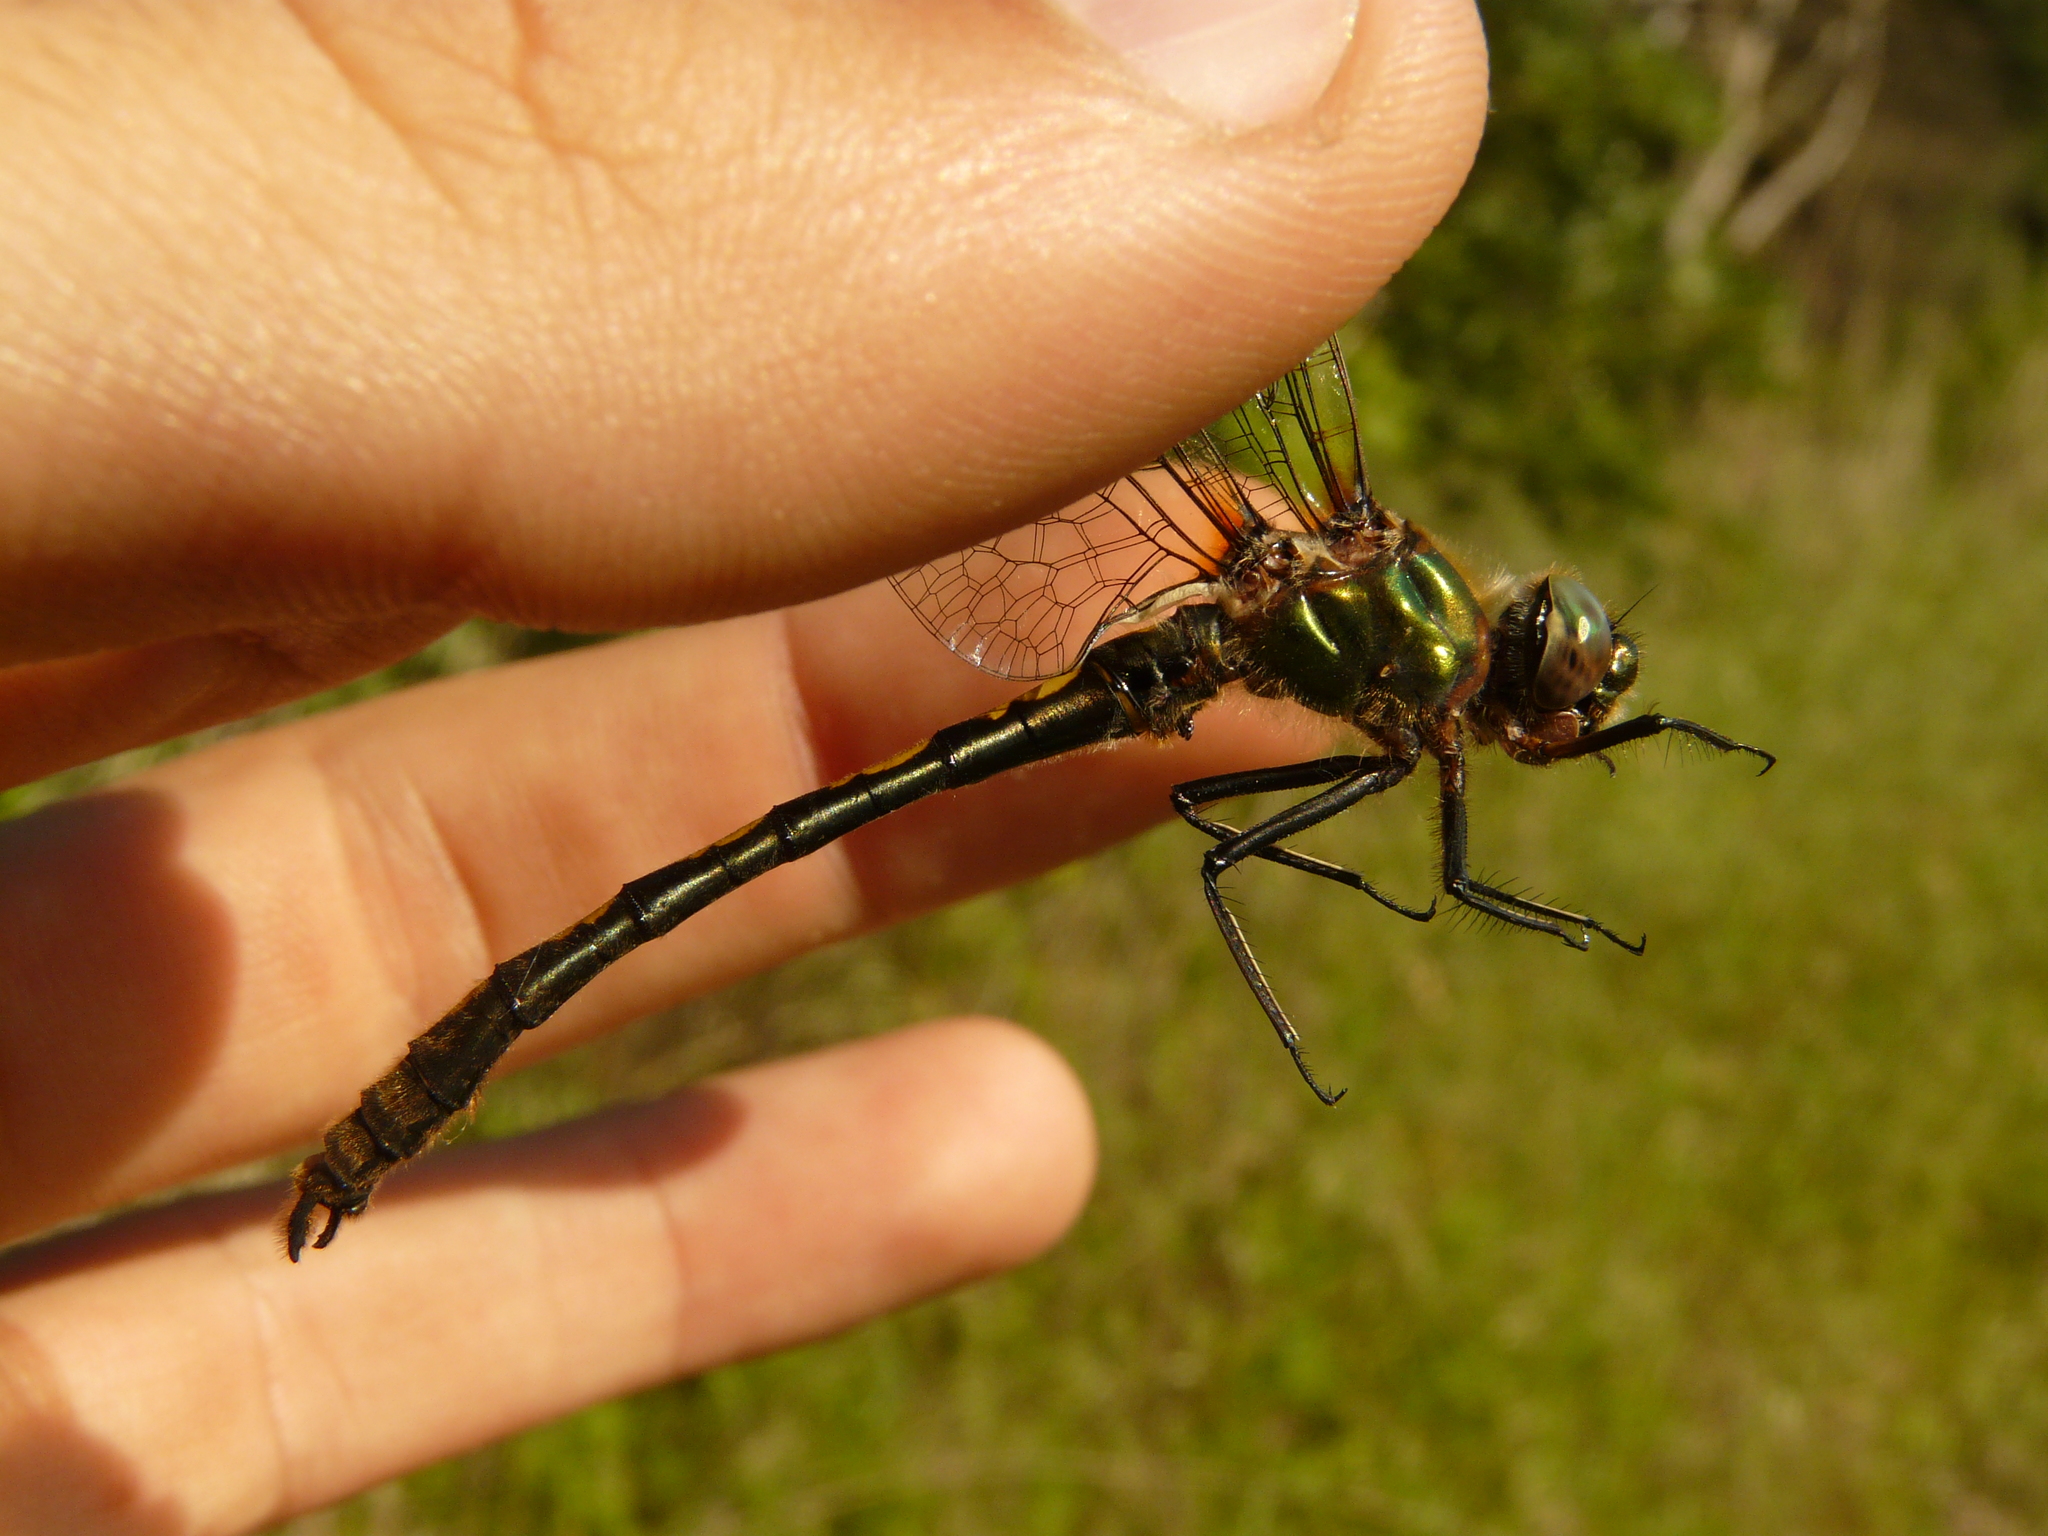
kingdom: Animalia
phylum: Arthropoda
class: Insecta
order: Odonata
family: Corduliidae
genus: Oxygastra
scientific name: Oxygastra curtisii
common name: Orange-spotted emerald
